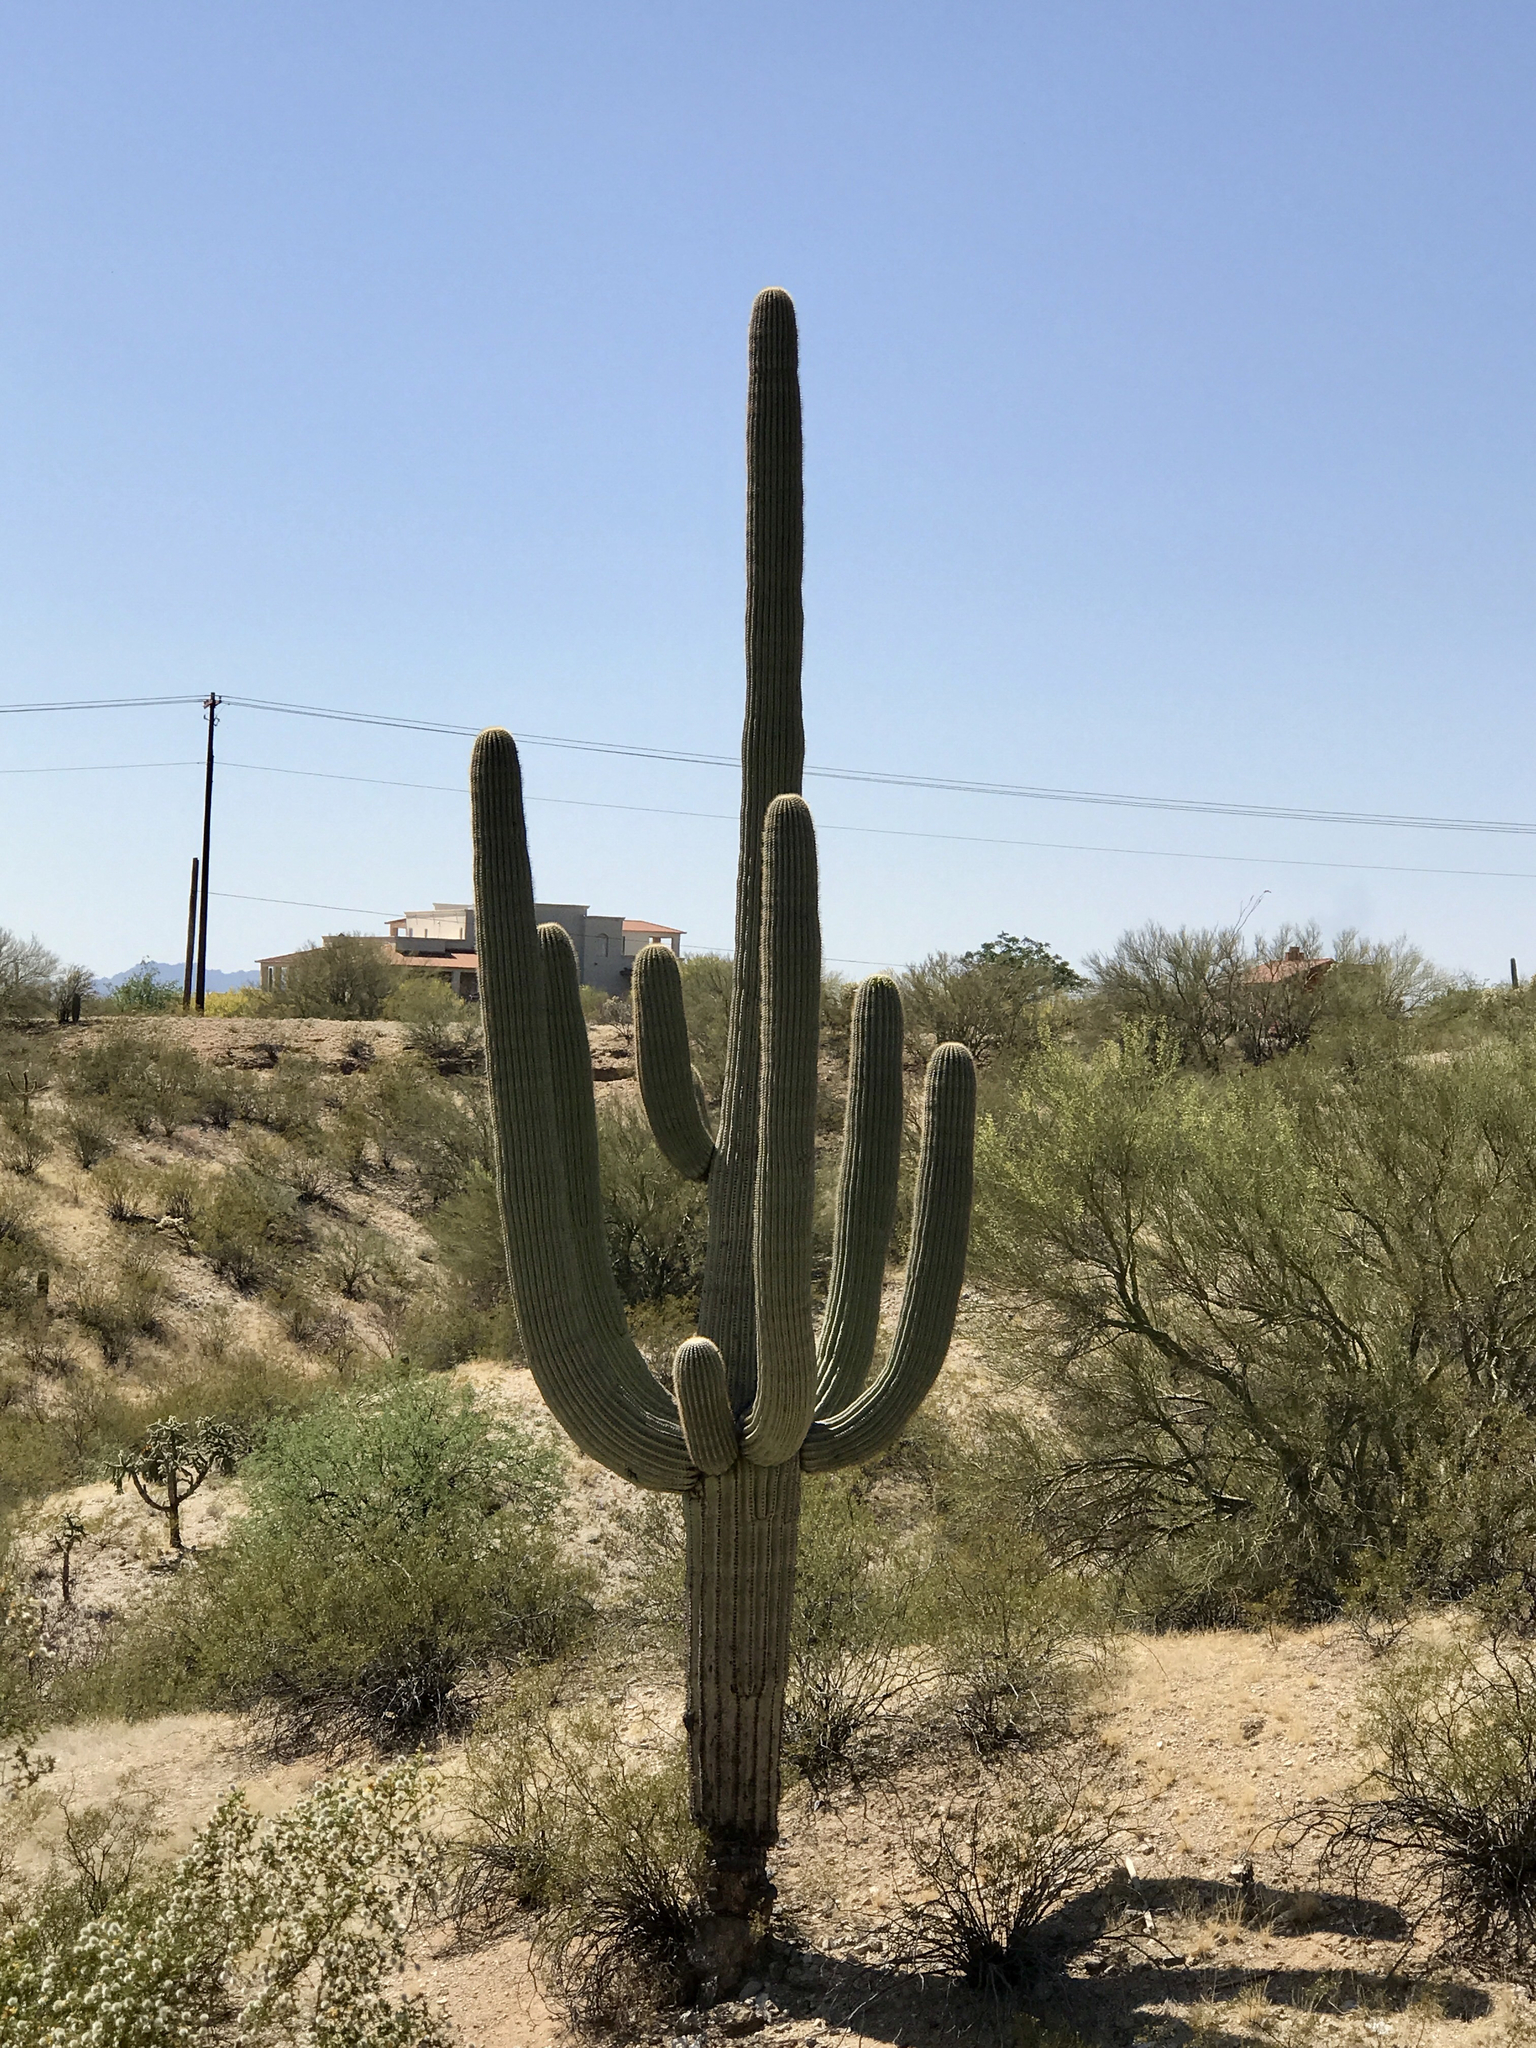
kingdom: Plantae
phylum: Tracheophyta
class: Magnoliopsida
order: Caryophyllales
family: Cactaceae
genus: Carnegiea
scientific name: Carnegiea gigantea
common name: Saguaro
